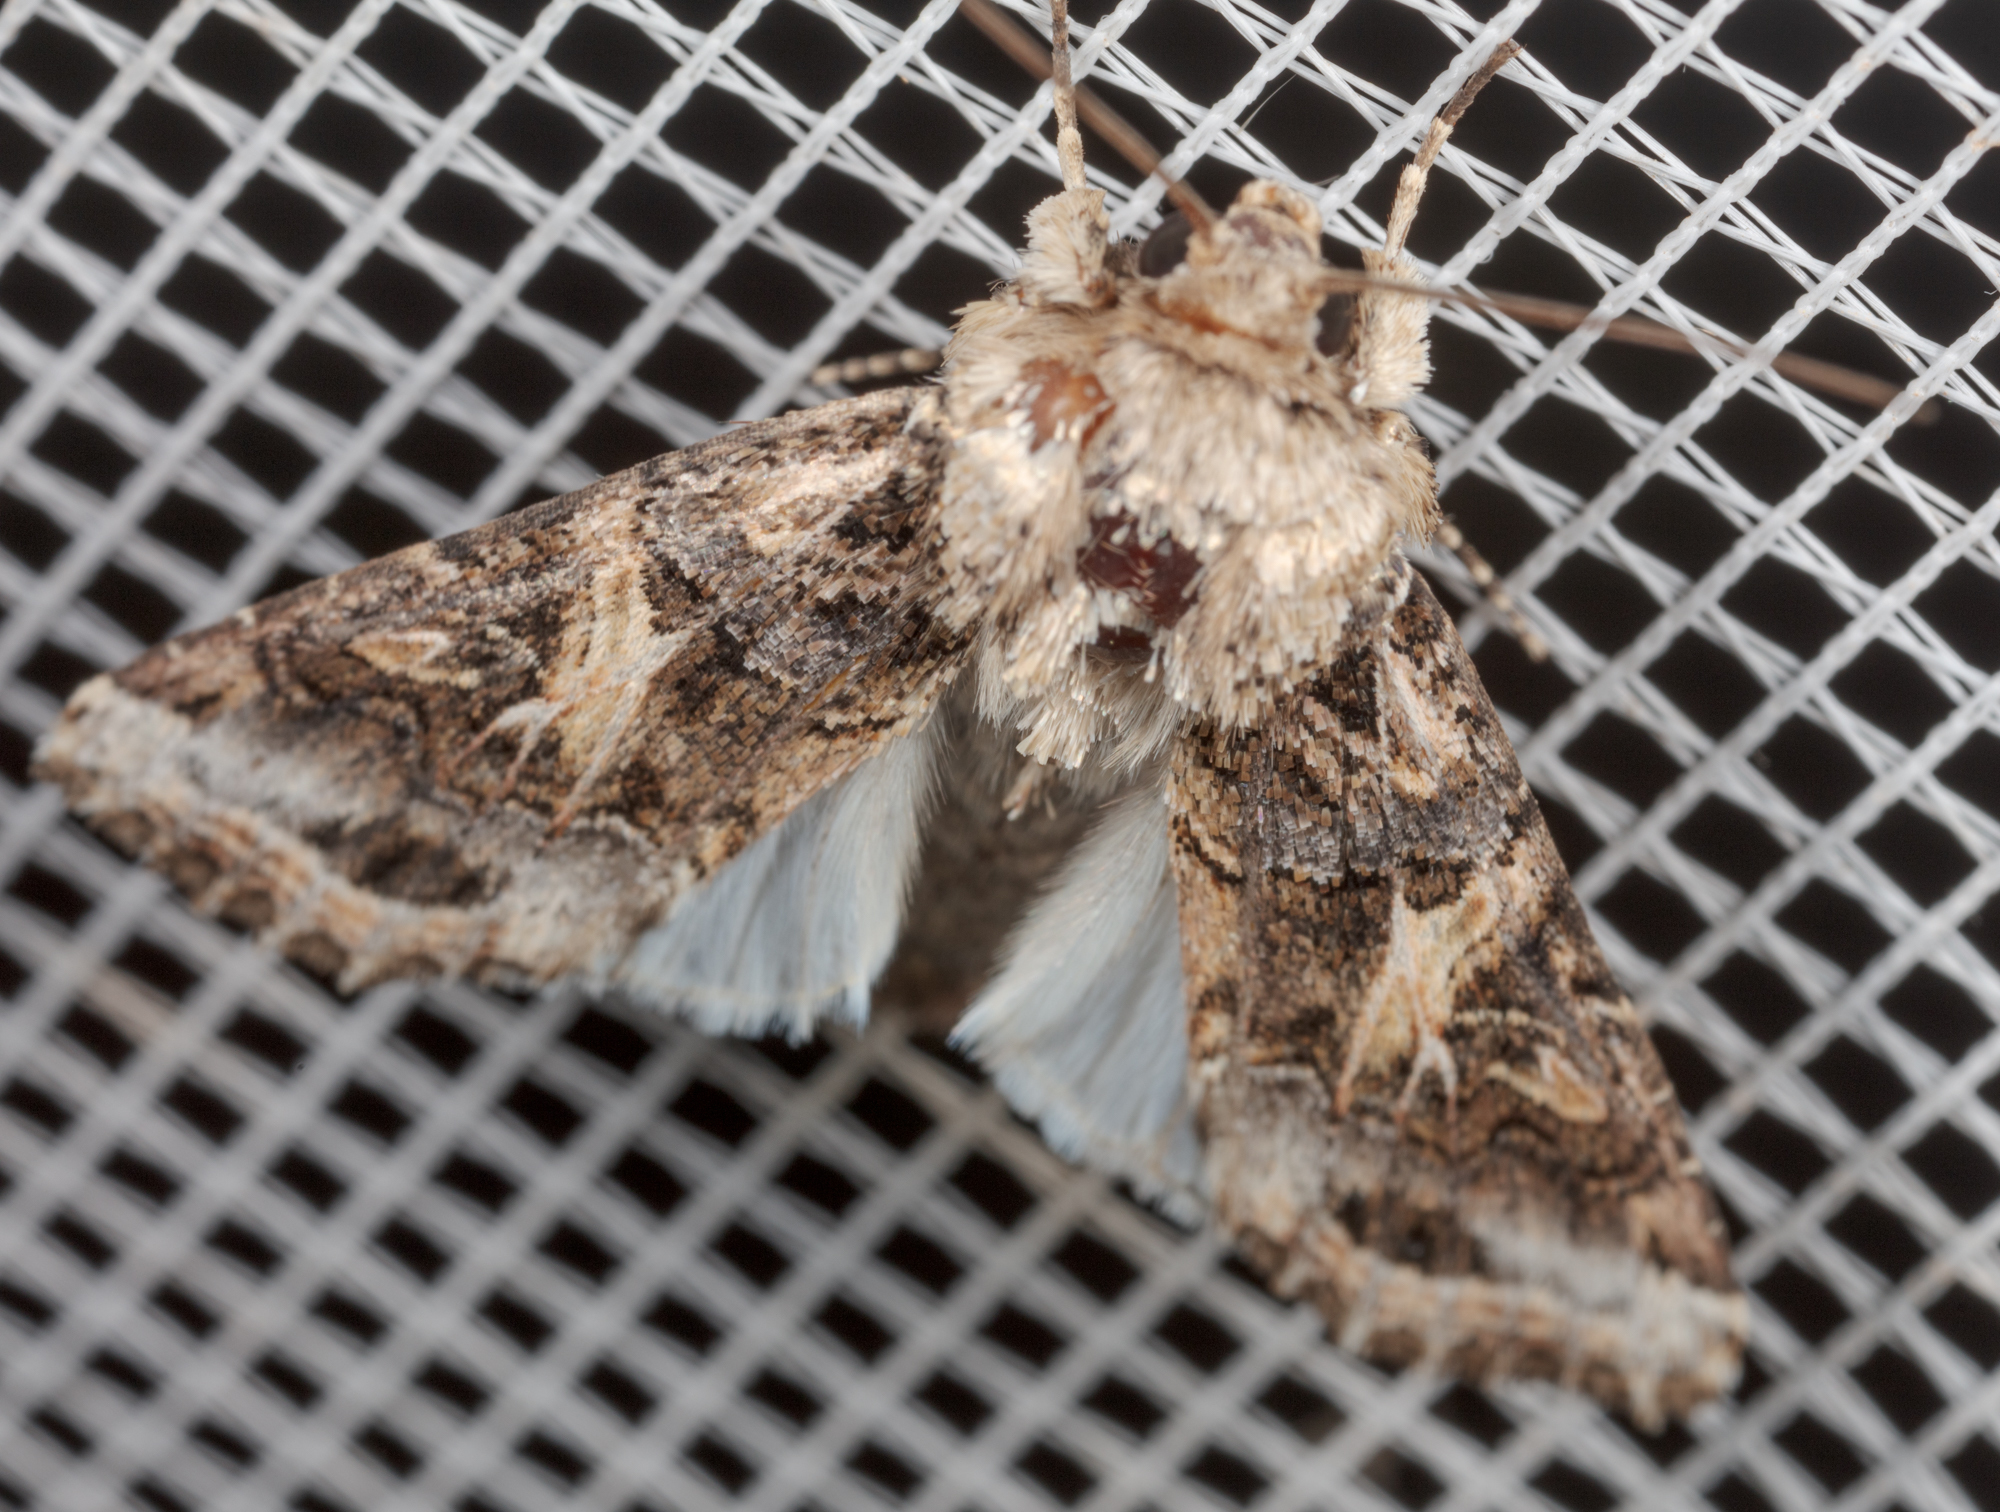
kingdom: Animalia
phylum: Arthropoda
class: Insecta
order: Lepidoptera
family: Noctuidae
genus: Spodoptera
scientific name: Spodoptera ornithogalli
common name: Yellow-striped armyworm
